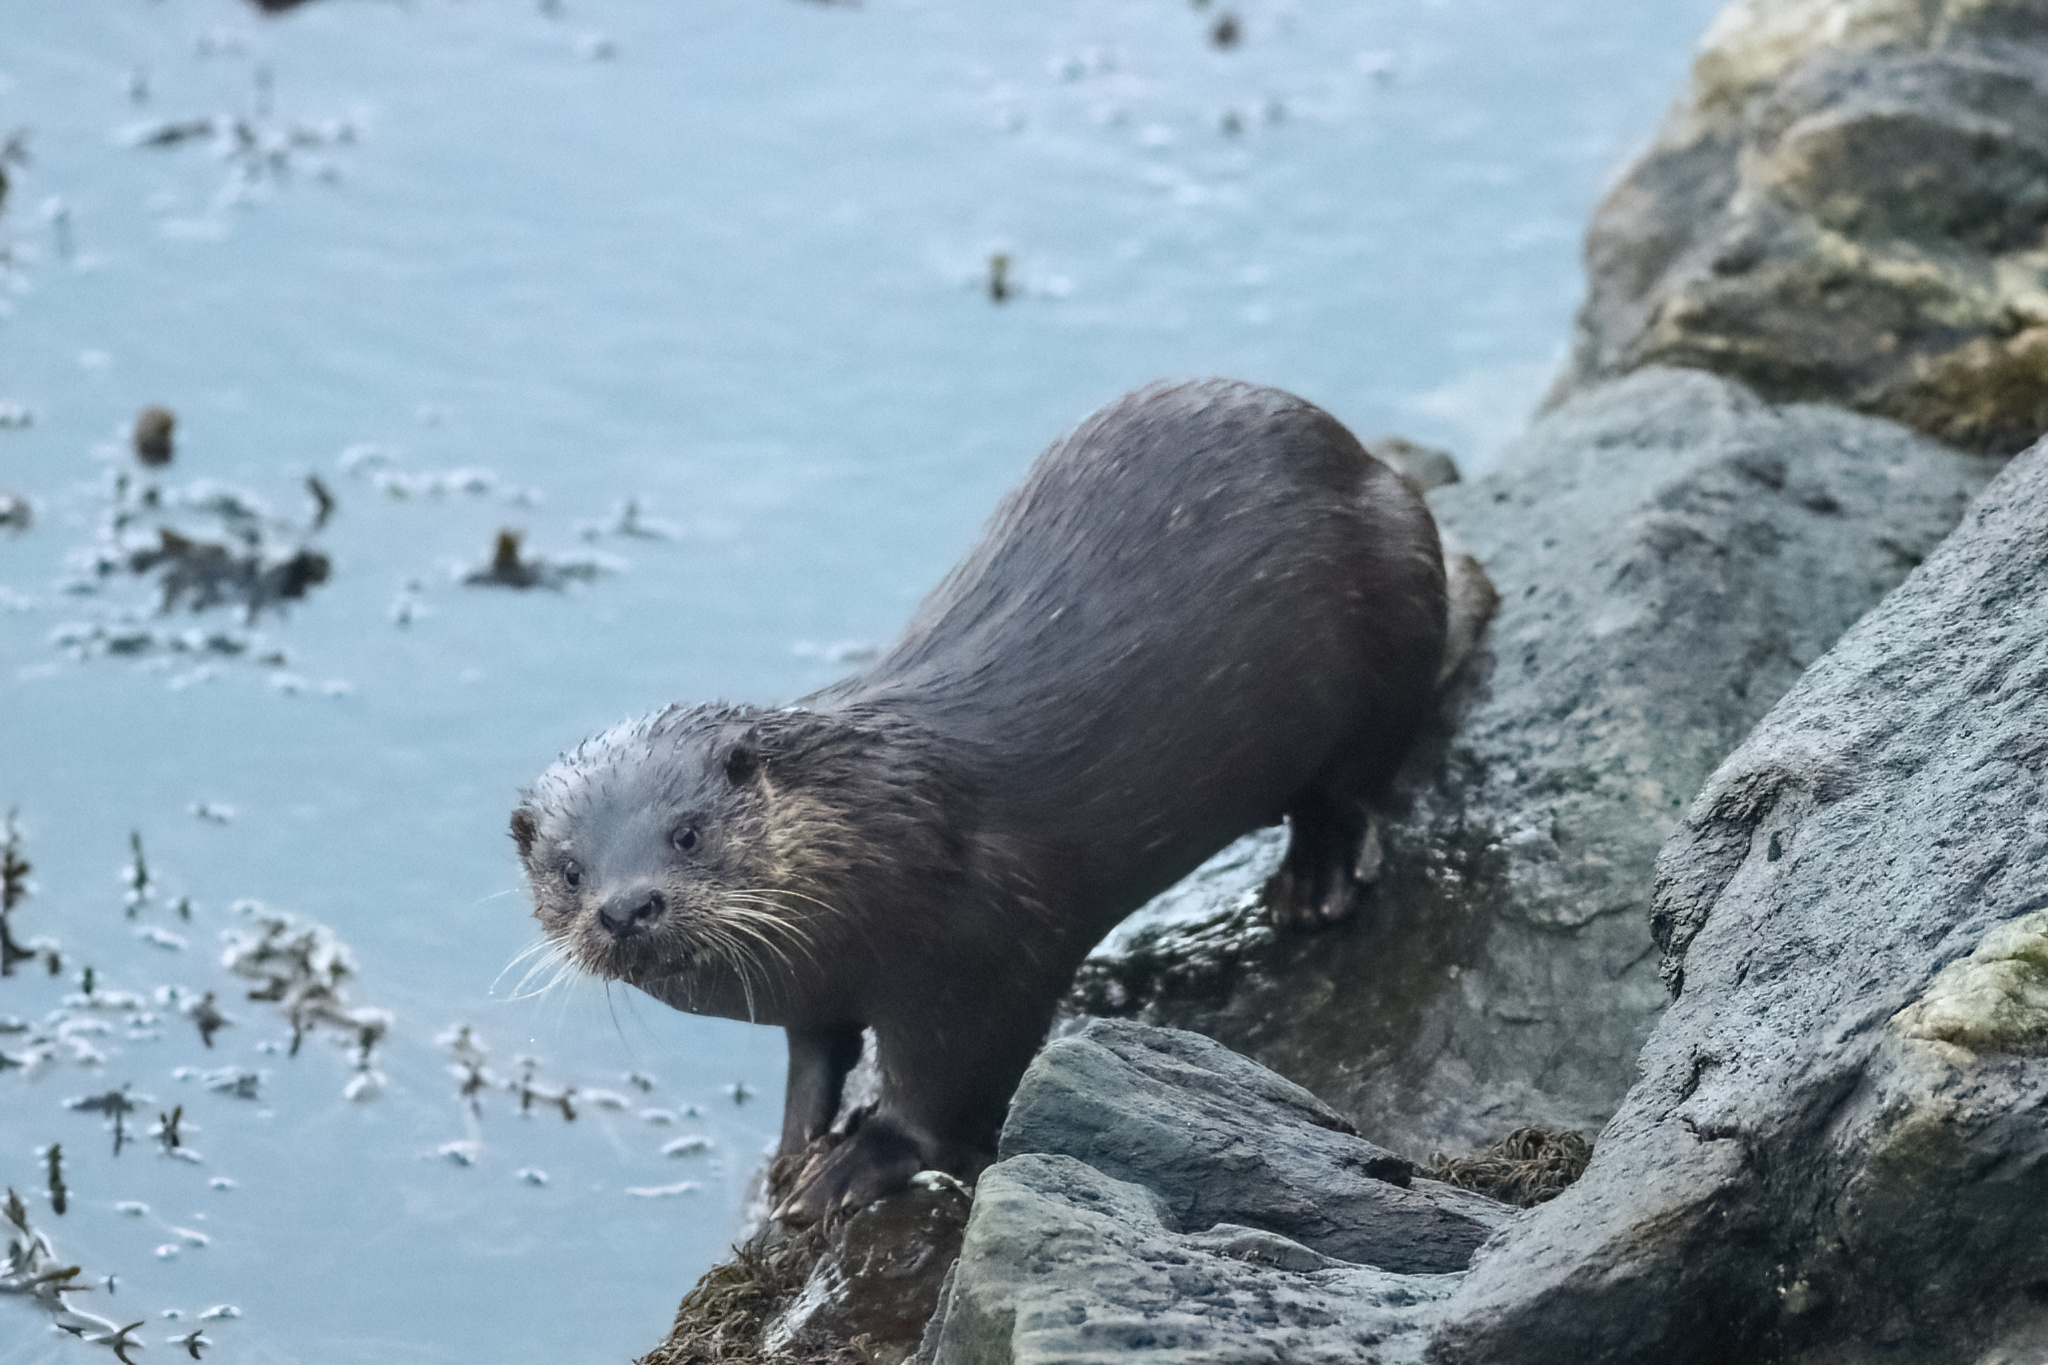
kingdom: Animalia
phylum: Chordata
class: Mammalia
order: Carnivora
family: Mustelidae
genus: Lutra
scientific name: Lutra lutra
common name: European otter
